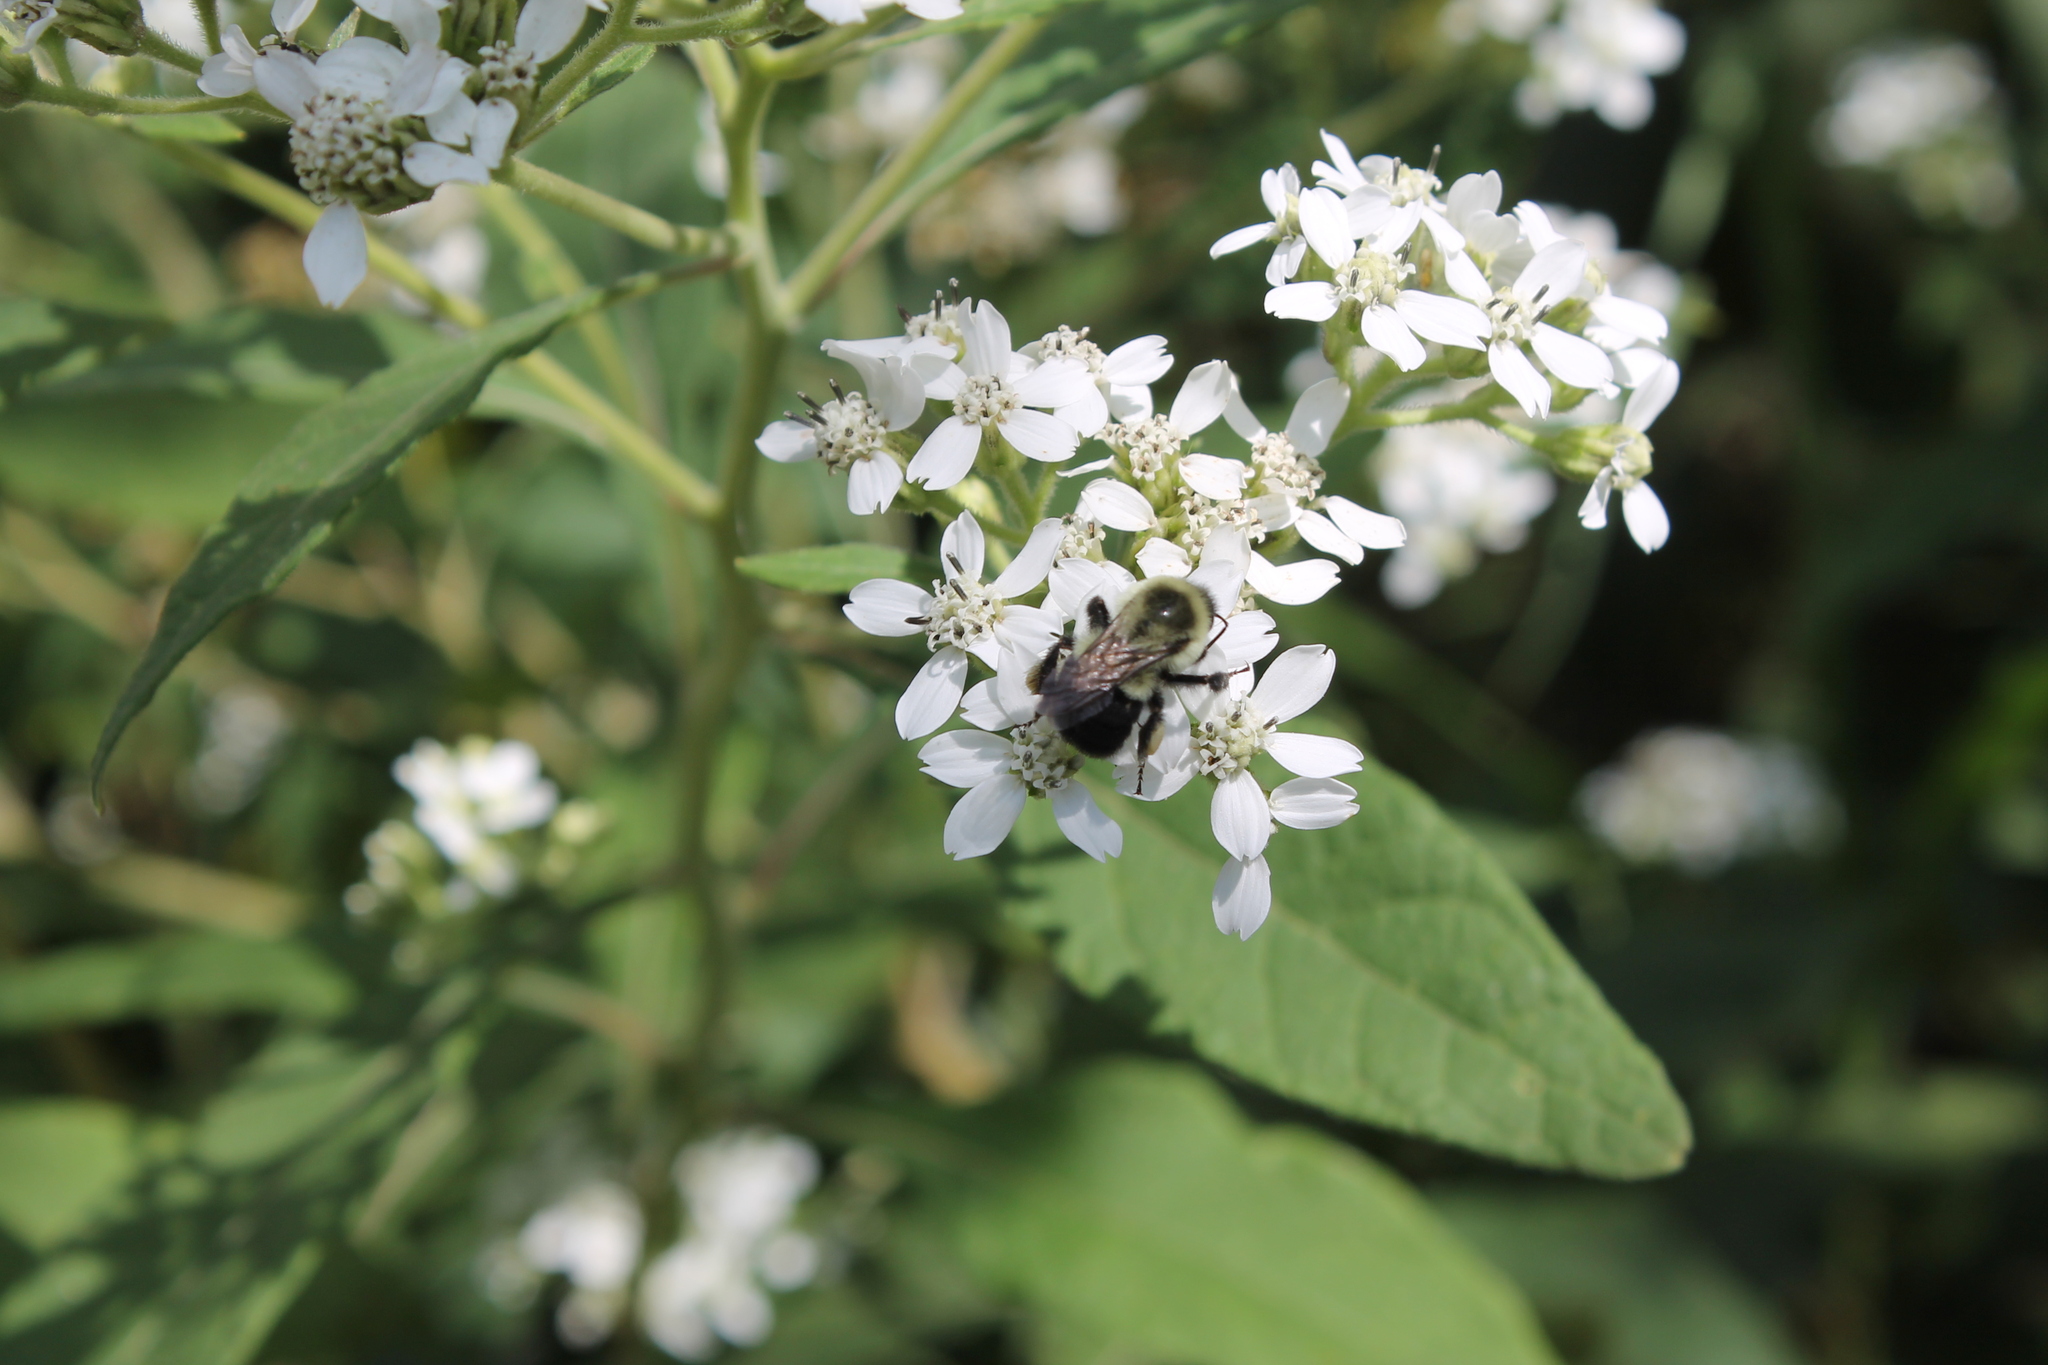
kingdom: Animalia
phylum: Arthropoda
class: Insecta
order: Hymenoptera
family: Apidae
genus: Bombus
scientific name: Bombus impatiens
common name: Common eastern bumble bee
